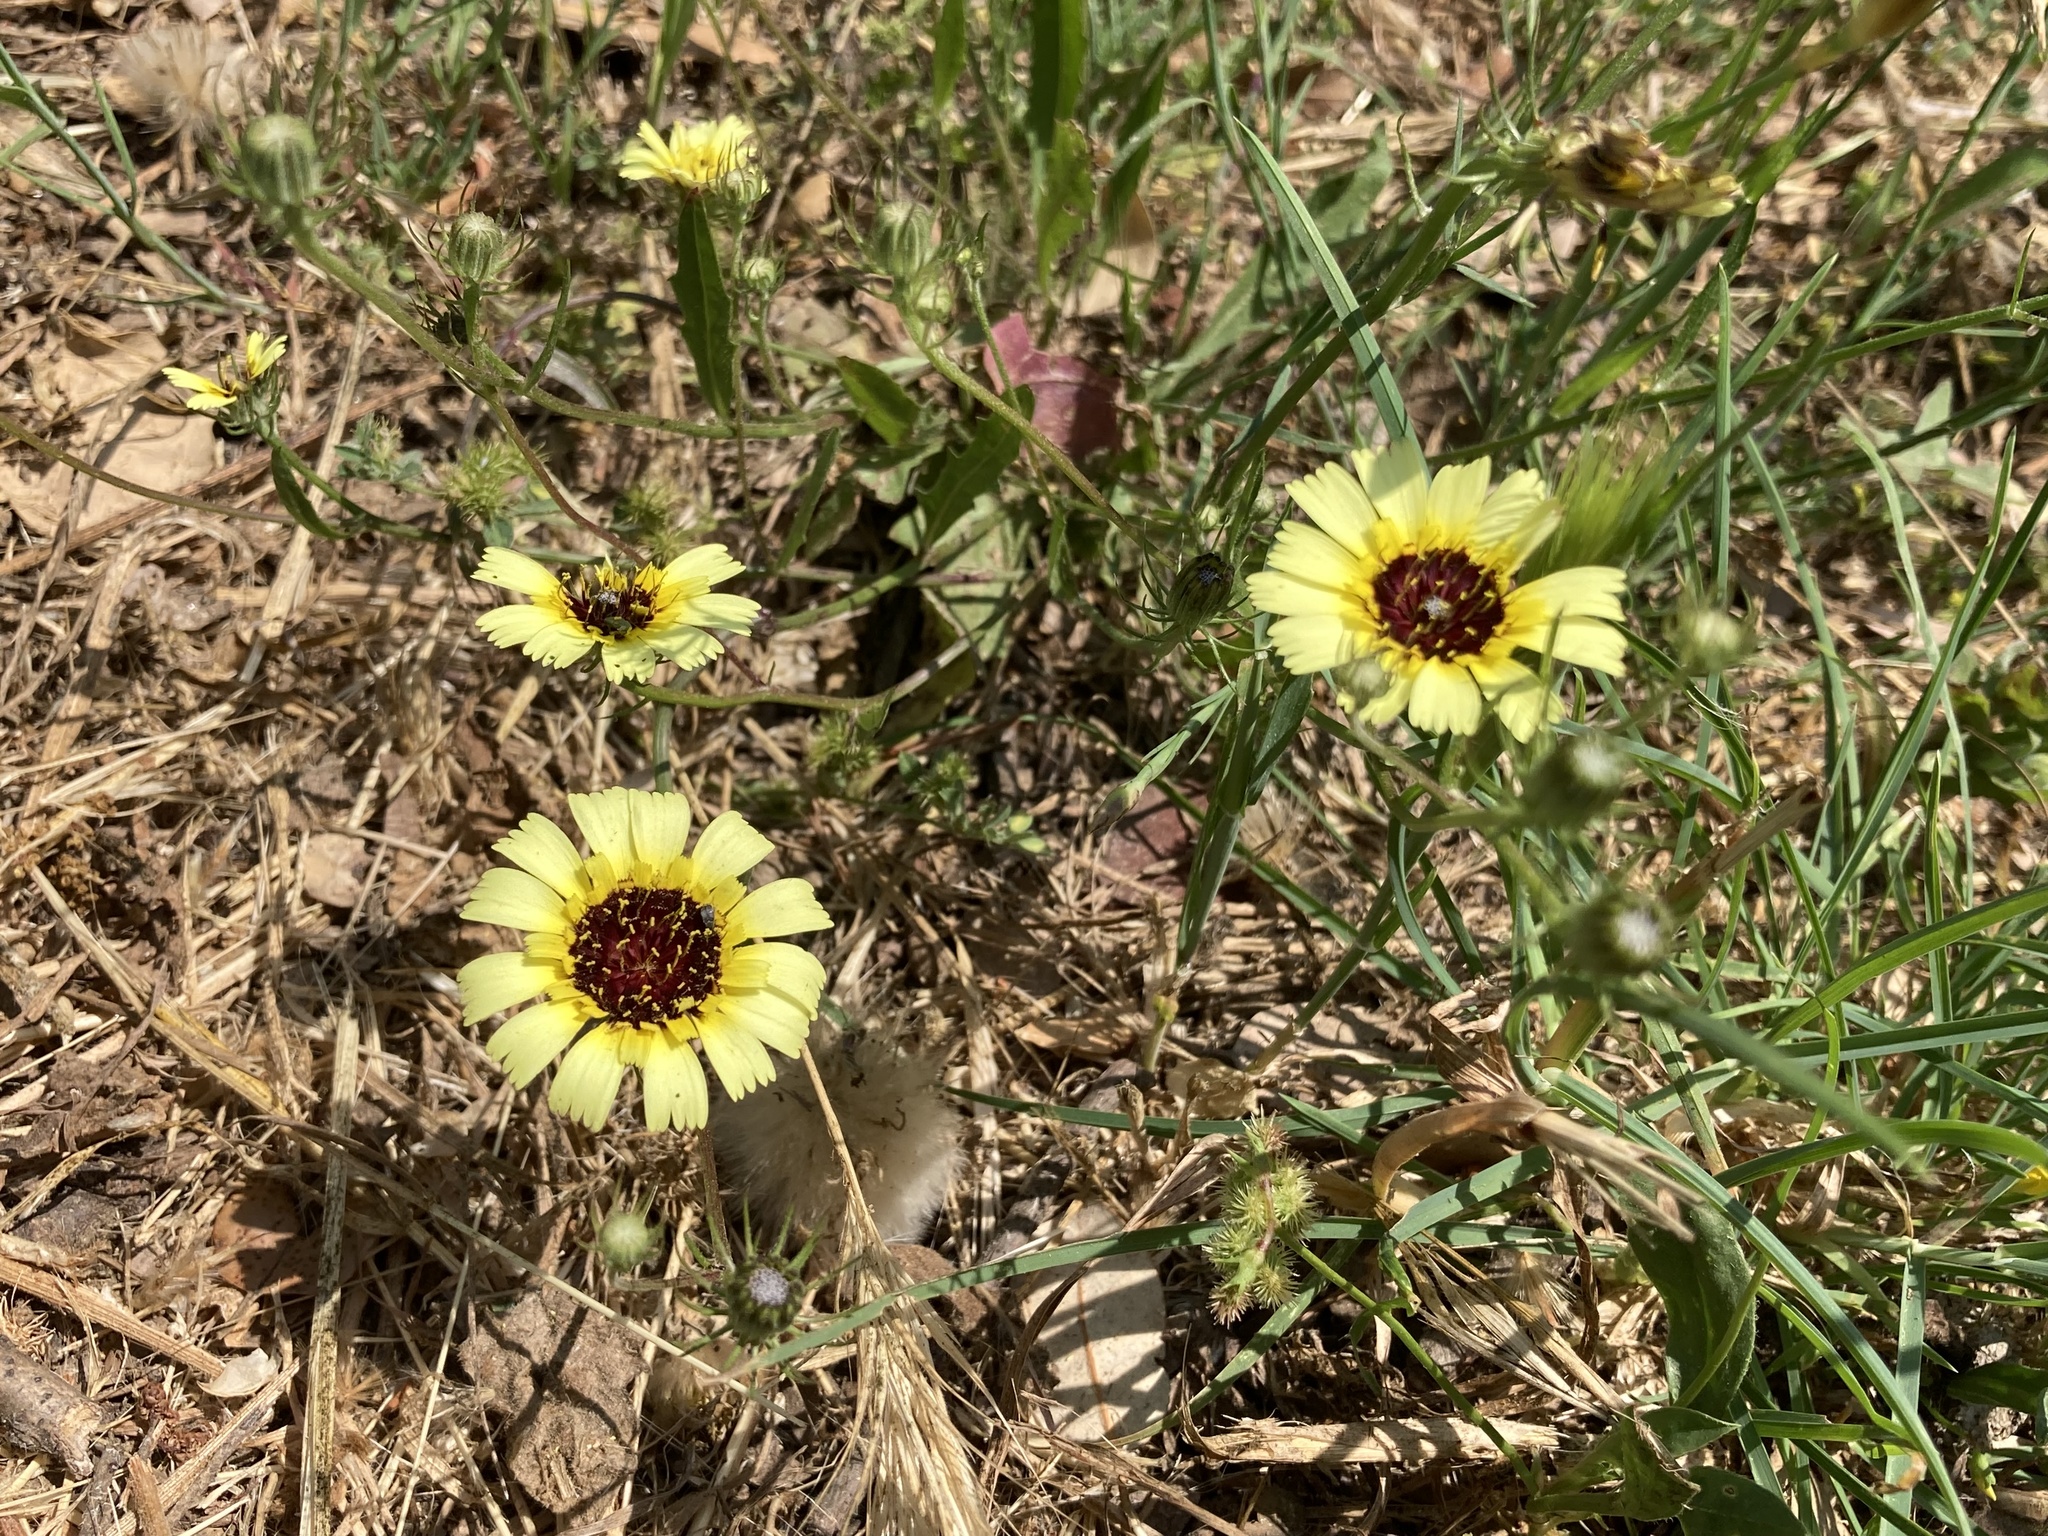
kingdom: Plantae
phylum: Tracheophyta
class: Magnoliopsida
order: Asterales
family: Asteraceae
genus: Tolpis
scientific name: Tolpis umbellata
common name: Yellow hawkweed
